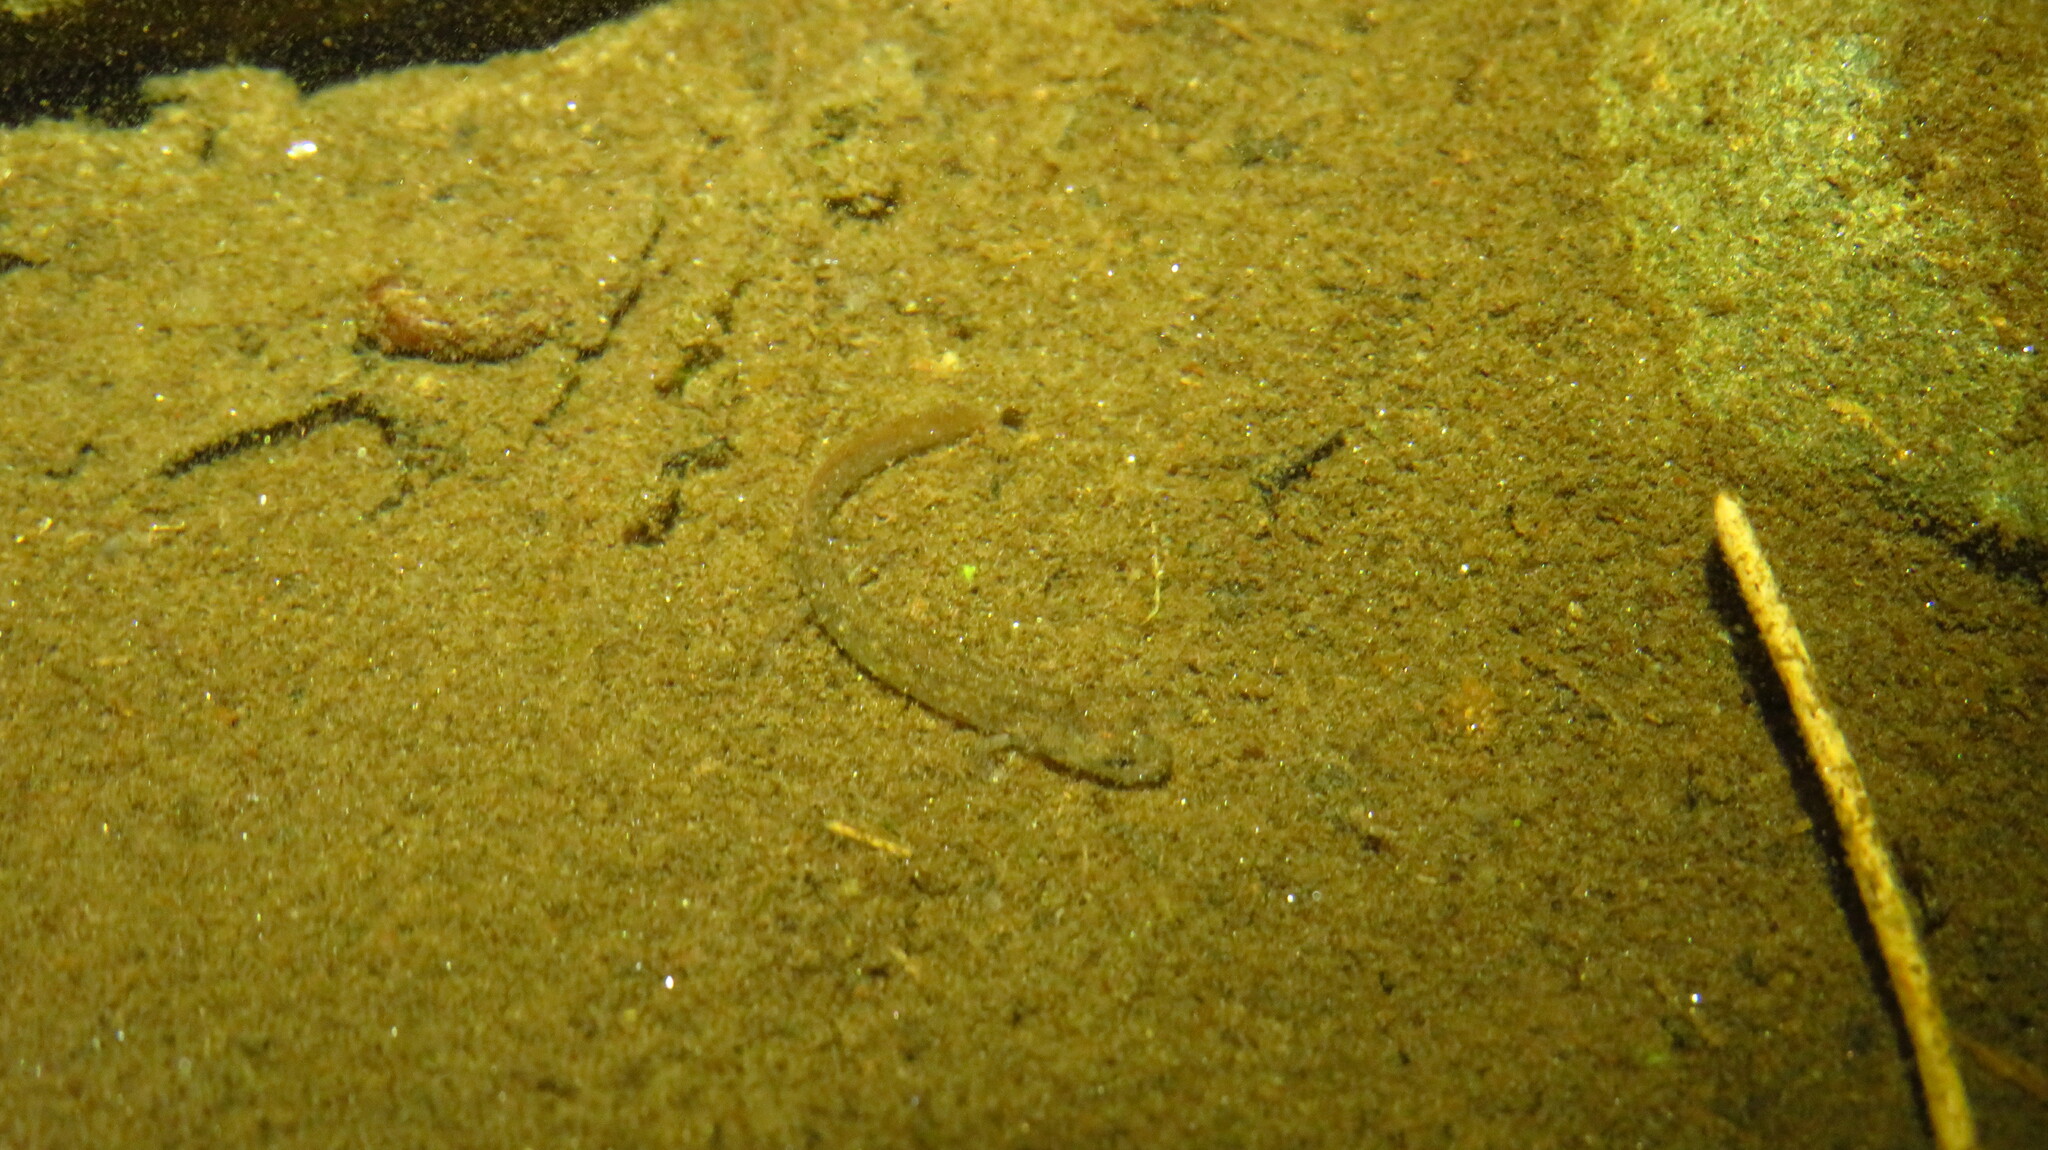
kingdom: Animalia
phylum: Chordata
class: Amphibia
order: Caudata
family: Plethodontidae
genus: Eurycea
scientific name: Eurycea bislineata
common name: Northern two-lined salamander
